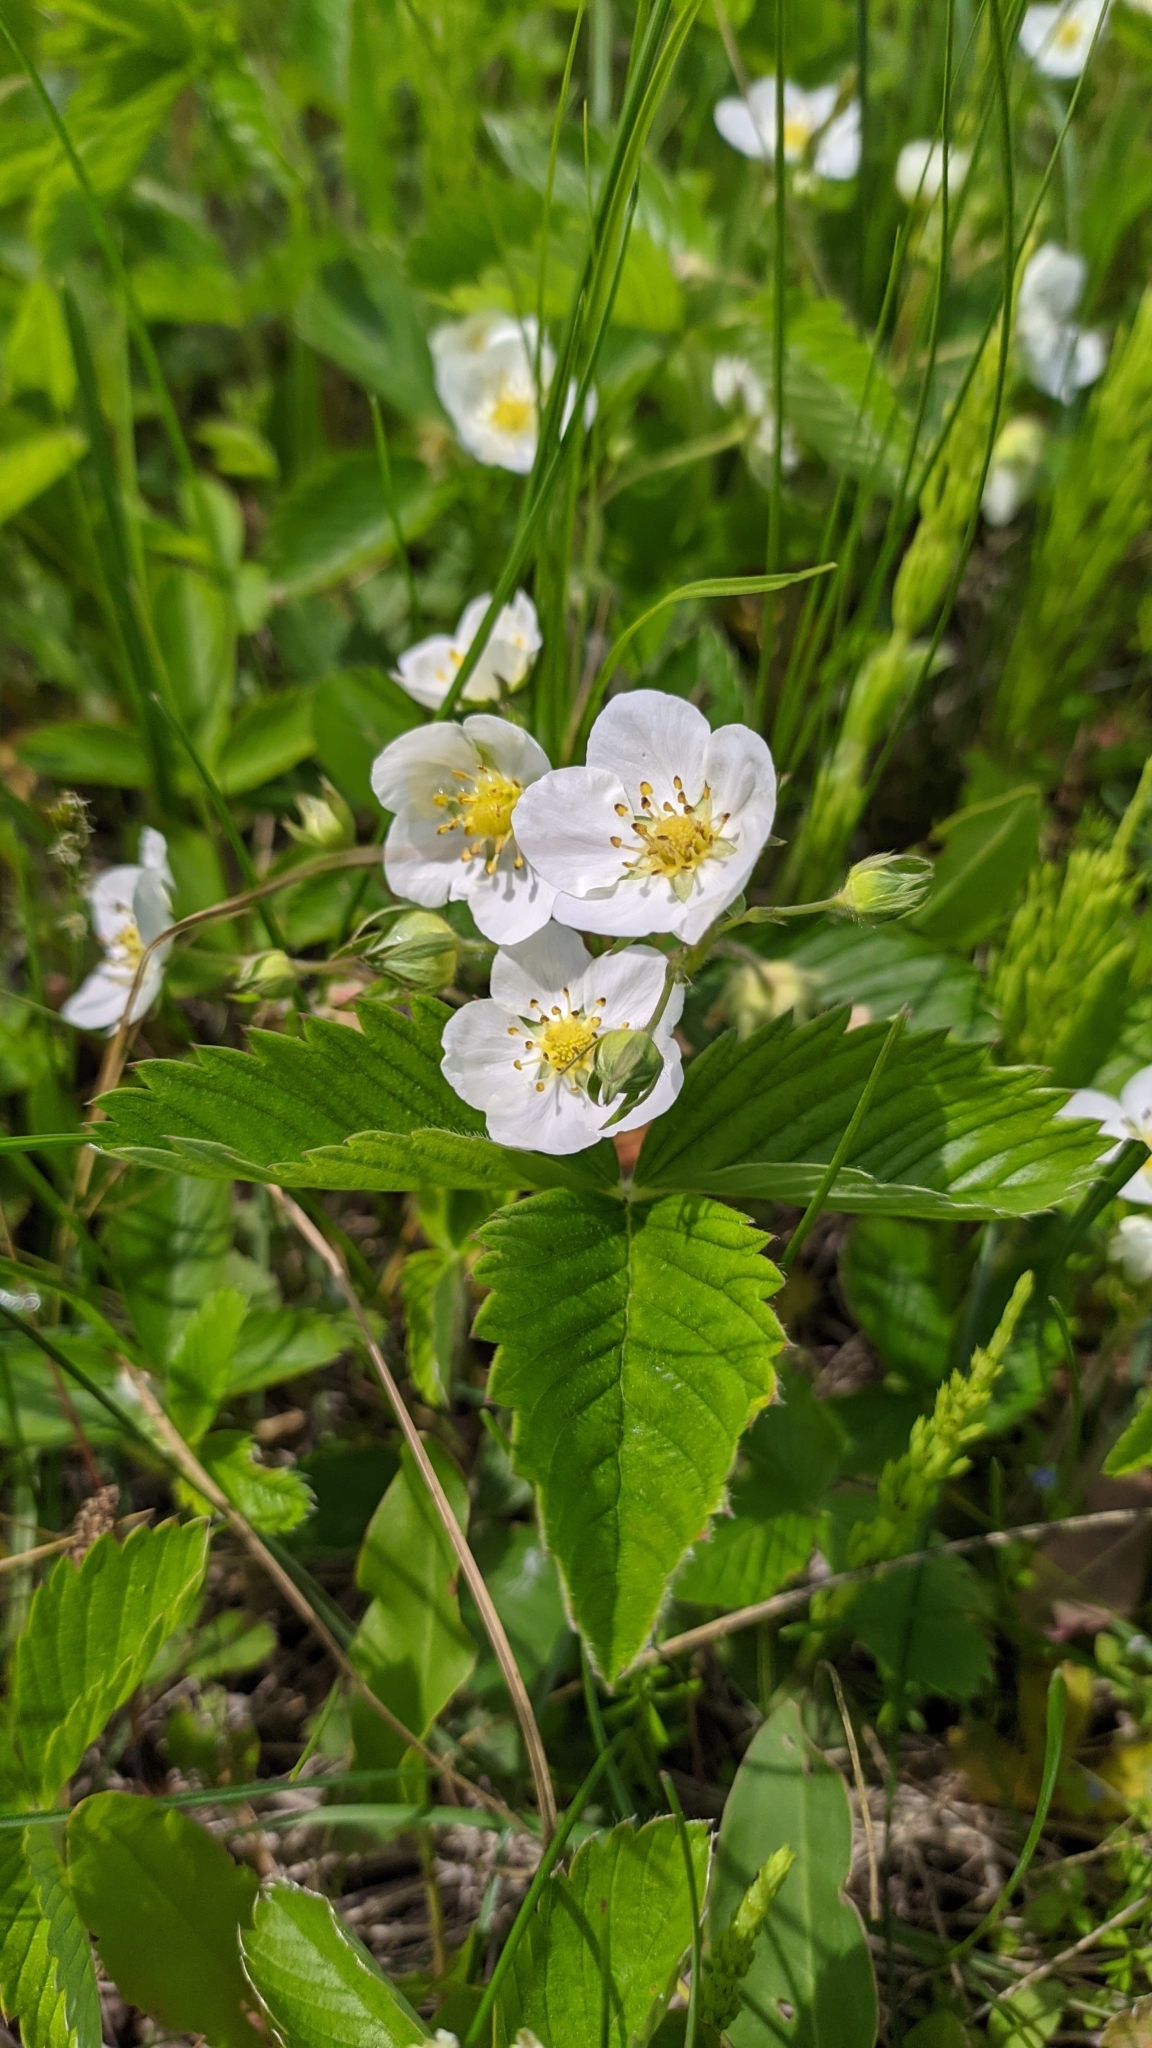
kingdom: Plantae
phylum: Tracheophyta
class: Magnoliopsida
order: Rosales
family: Rosaceae
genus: Fragaria
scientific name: Fragaria viridis
